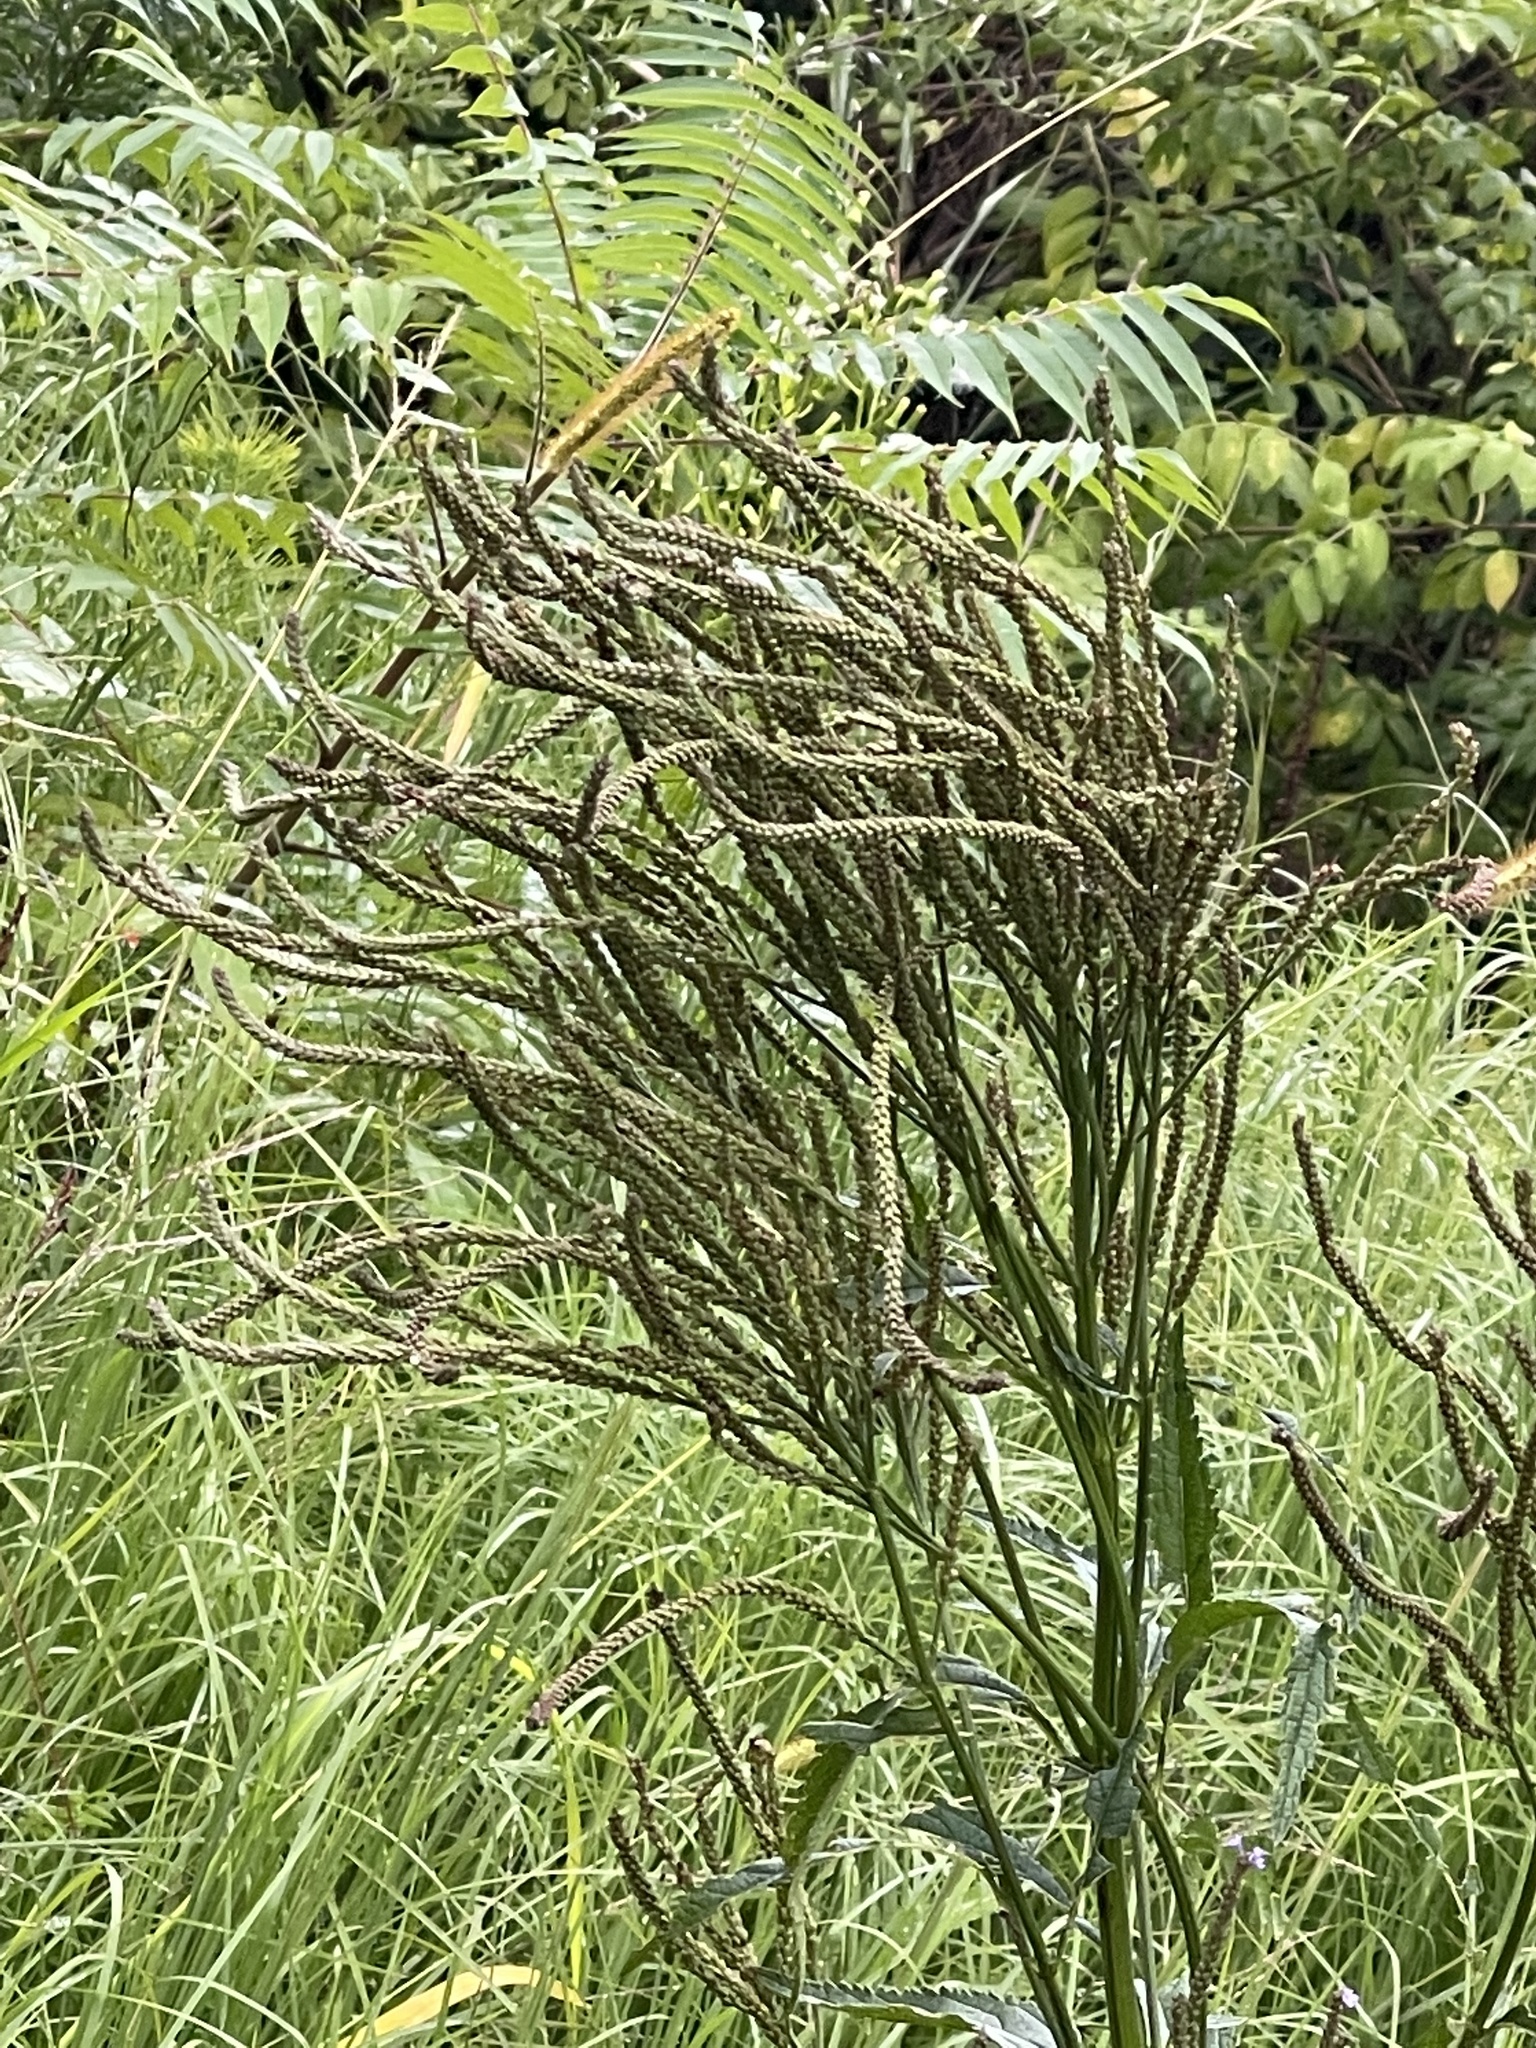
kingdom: Plantae
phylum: Tracheophyta
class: Magnoliopsida
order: Lamiales
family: Verbenaceae
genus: Verbena
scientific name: Verbena hastata
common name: American blue vervain
